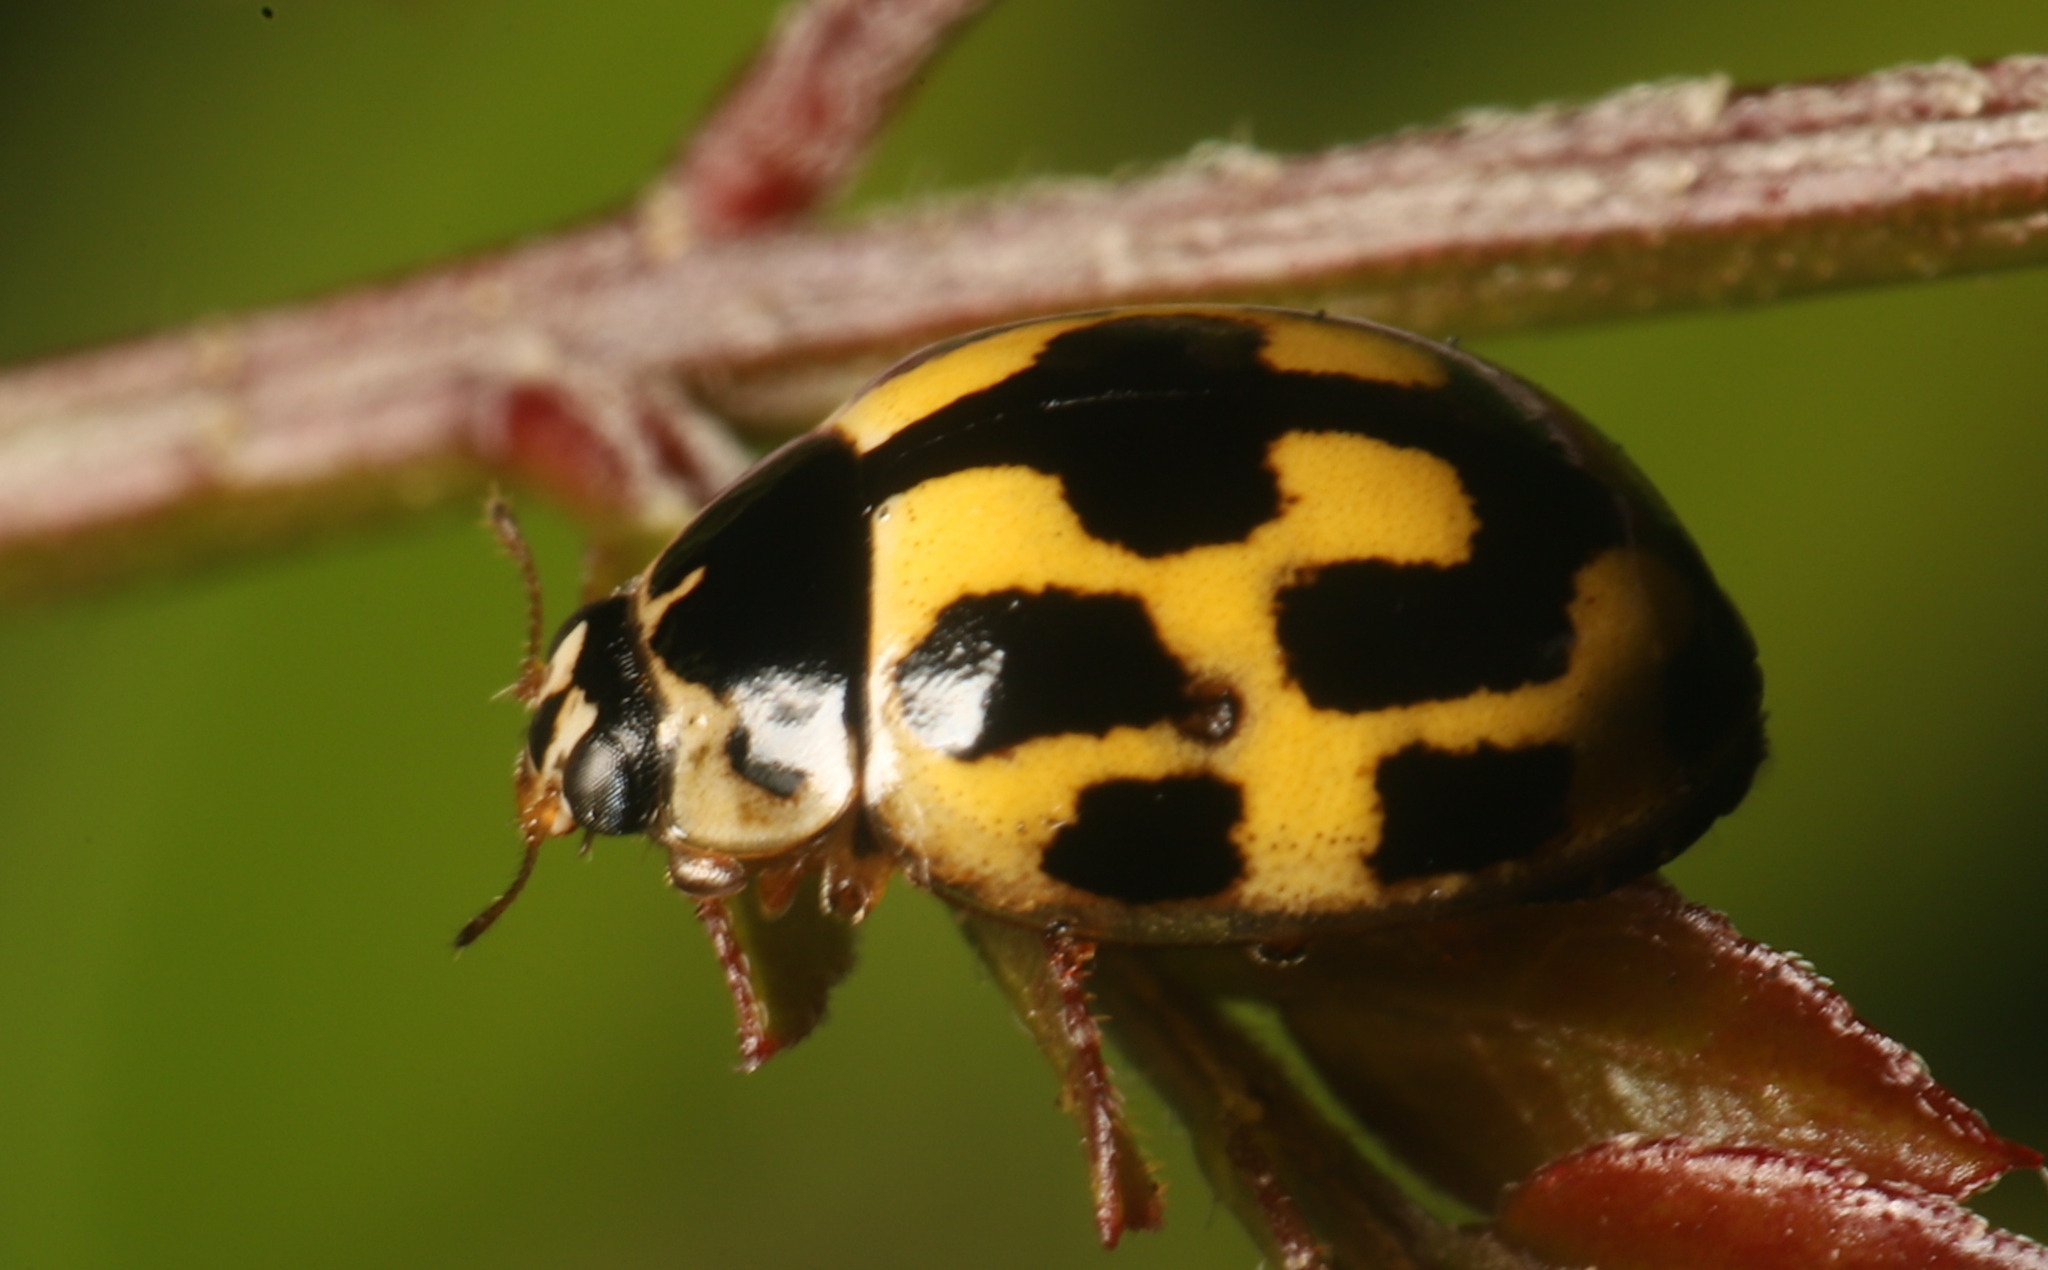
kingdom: Animalia
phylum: Arthropoda
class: Insecta
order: Coleoptera
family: Coccinellidae
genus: Propylaea
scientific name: Propylaea quatuordecimpunctata
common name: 14-spotted ladybird beetle
